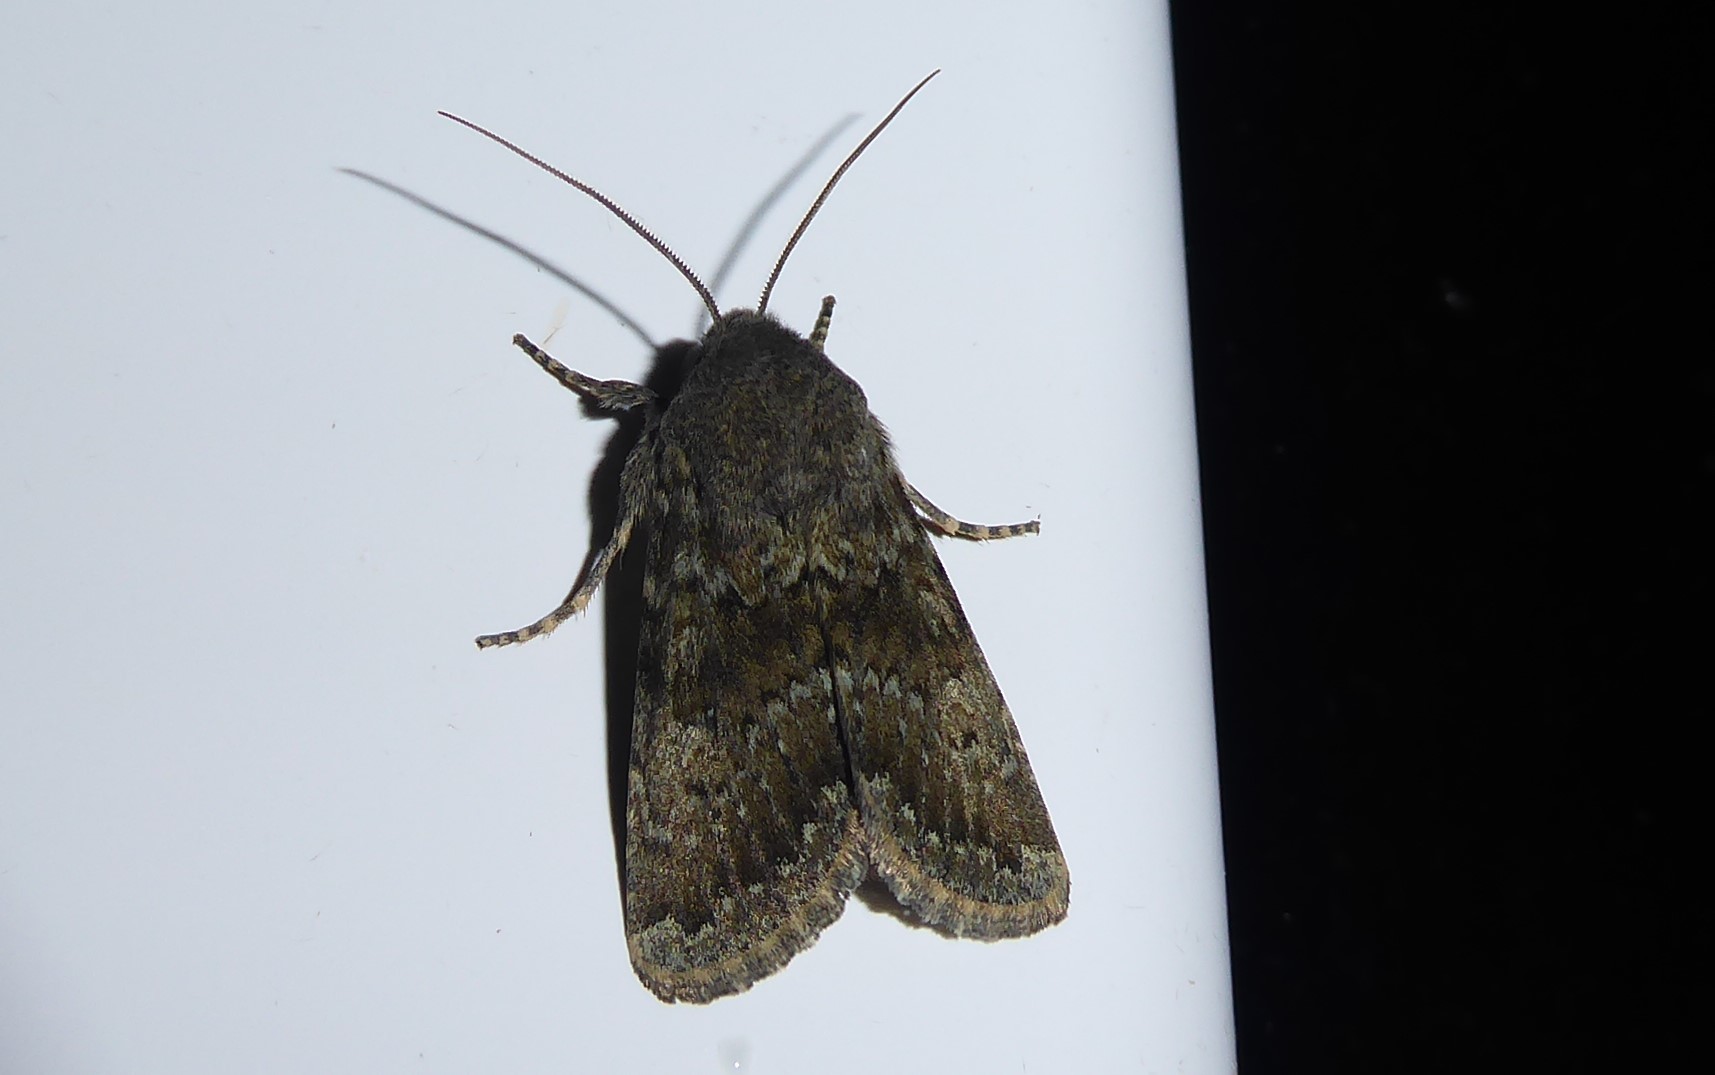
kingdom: Animalia
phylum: Arthropoda
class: Insecta
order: Lepidoptera
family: Noctuidae
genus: Ichneutica
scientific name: Ichneutica moderata
